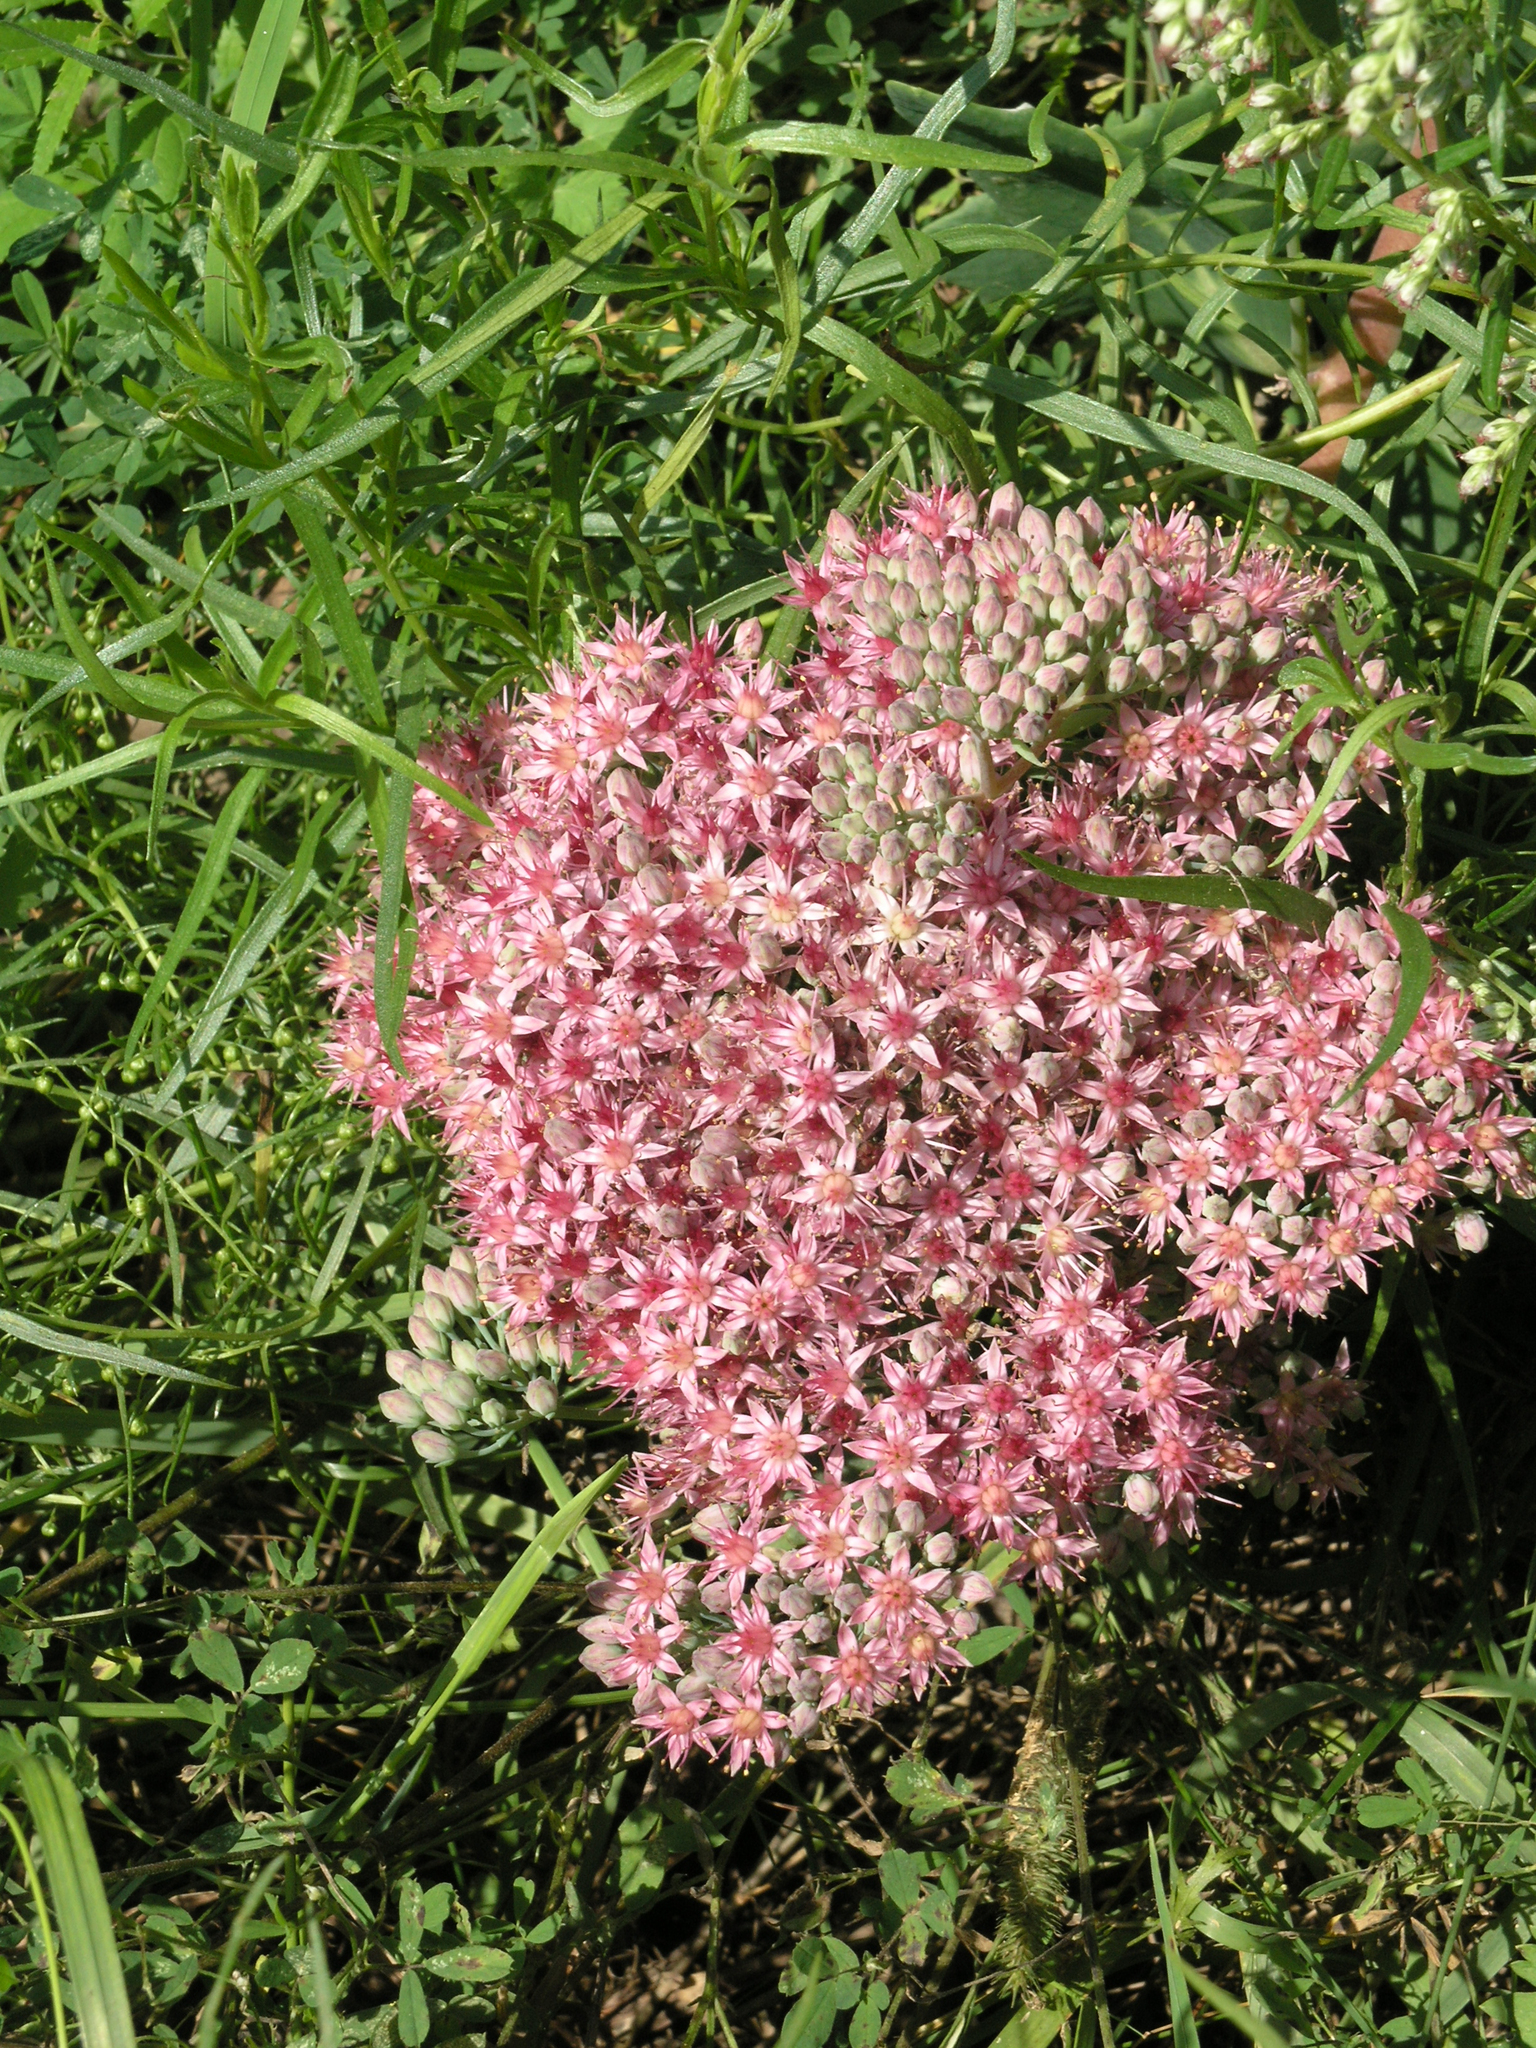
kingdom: Plantae
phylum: Tracheophyta
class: Magnoliopsida
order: Saxifragales
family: Crassulaceae
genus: Hylotelephium
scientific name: Hylotelephium telephium
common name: Live-forever
